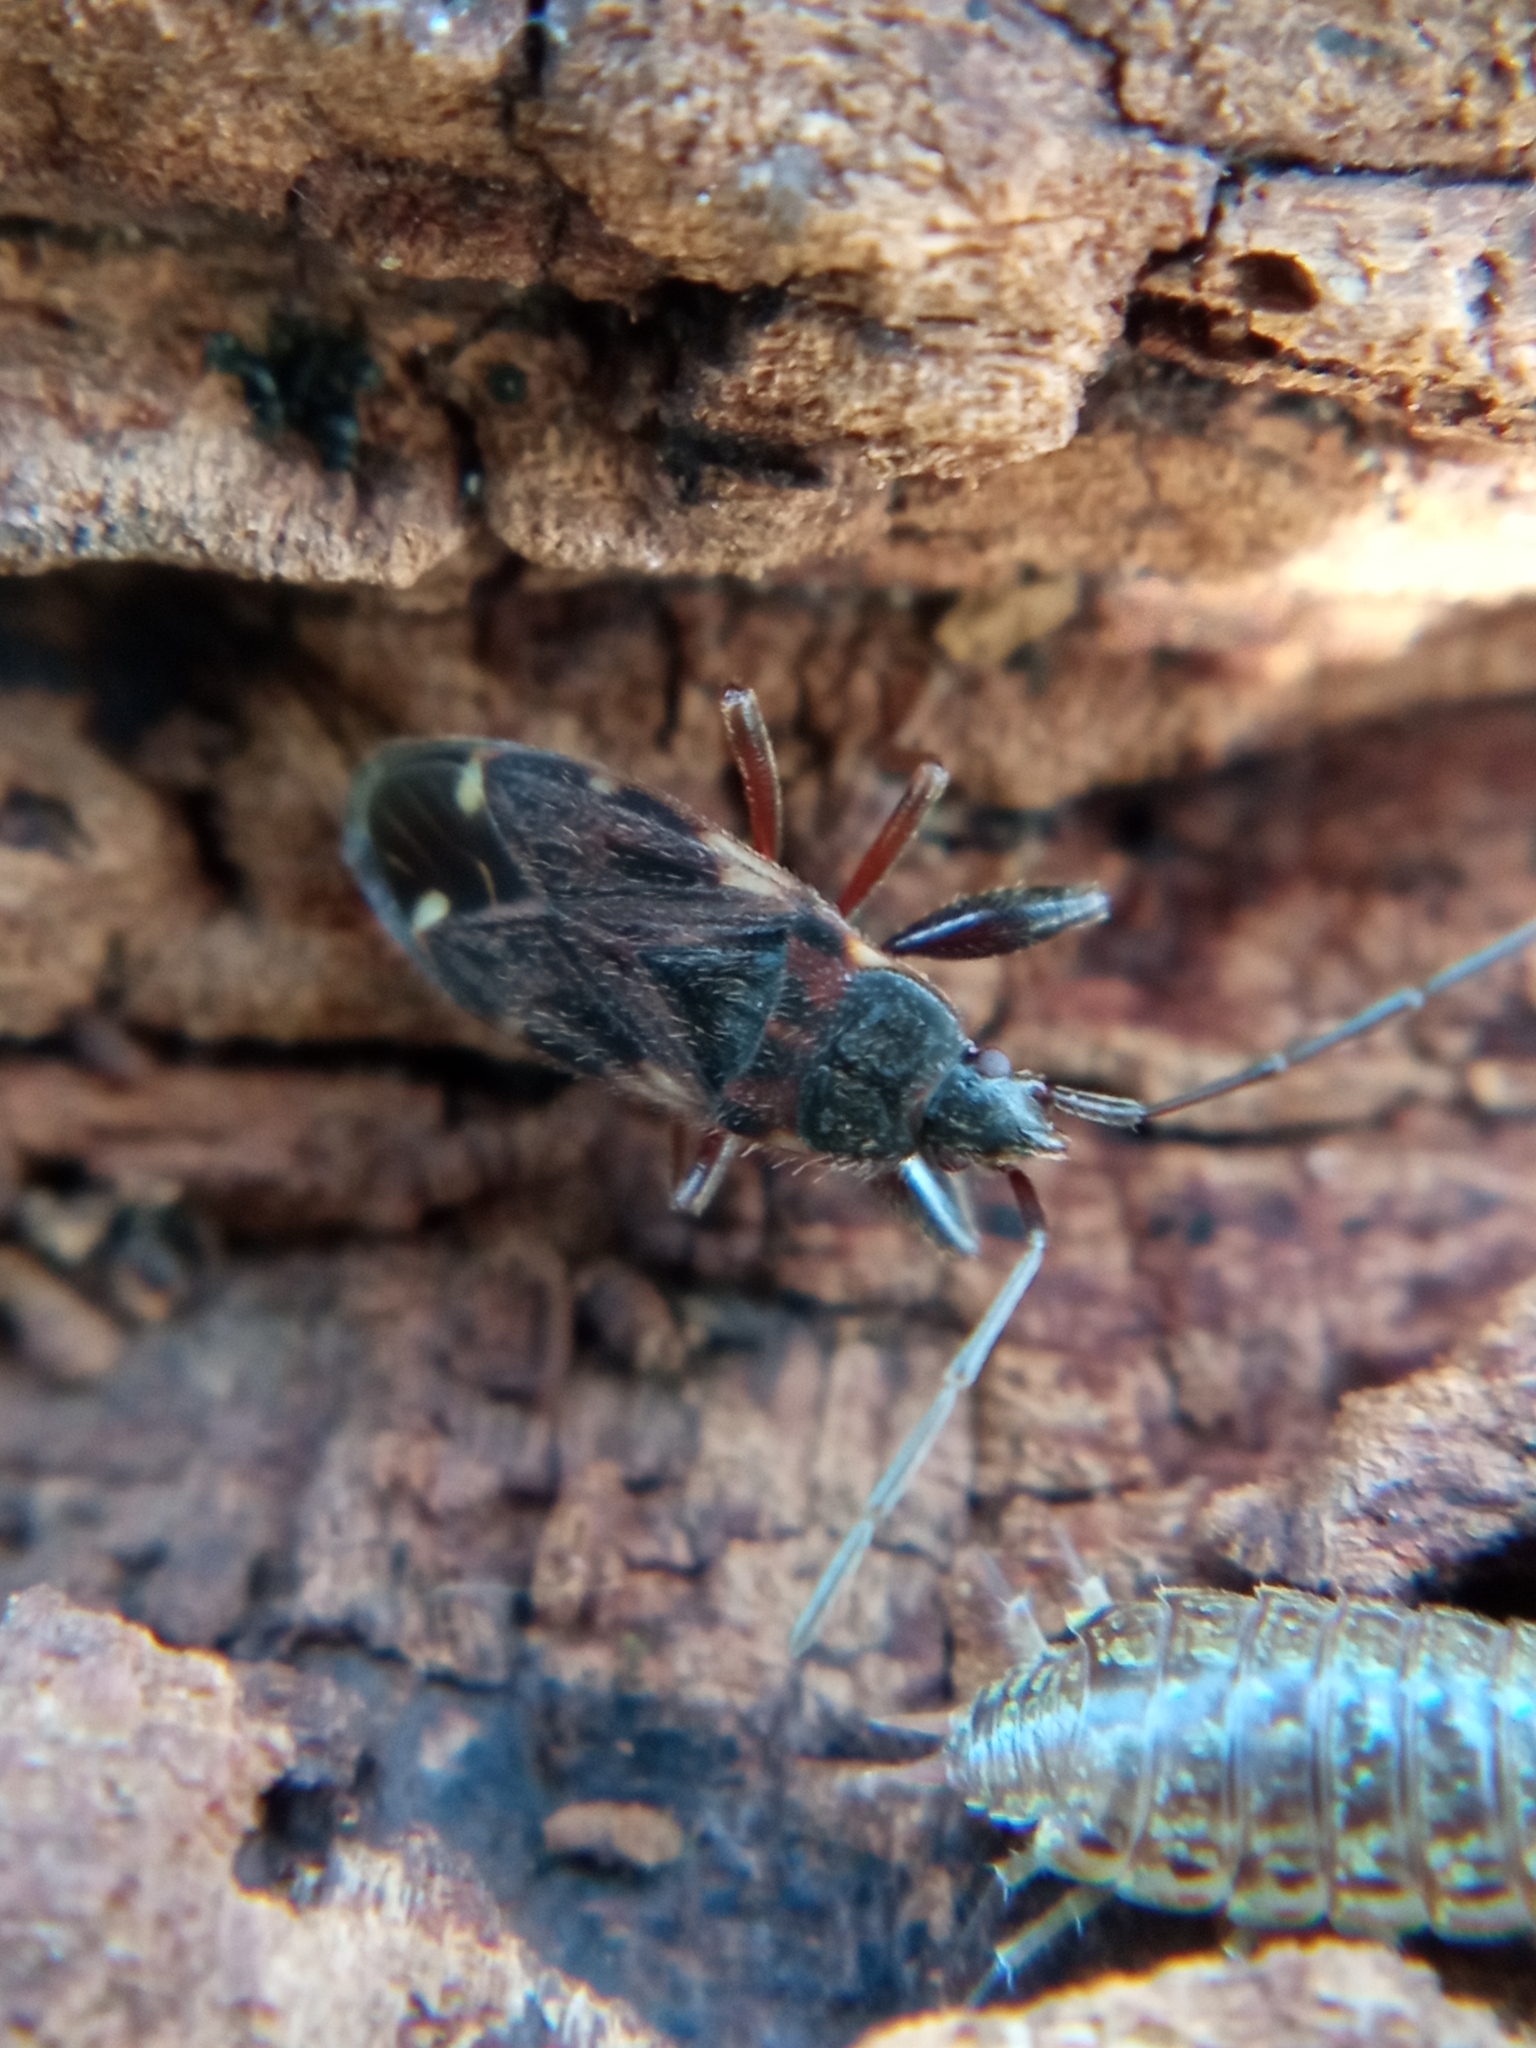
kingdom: Animalia
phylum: Arthropoda
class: Insecta
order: Hemiptera
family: Rhyparochromidae
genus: Eremocoris
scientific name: Eremocoris podagricus
